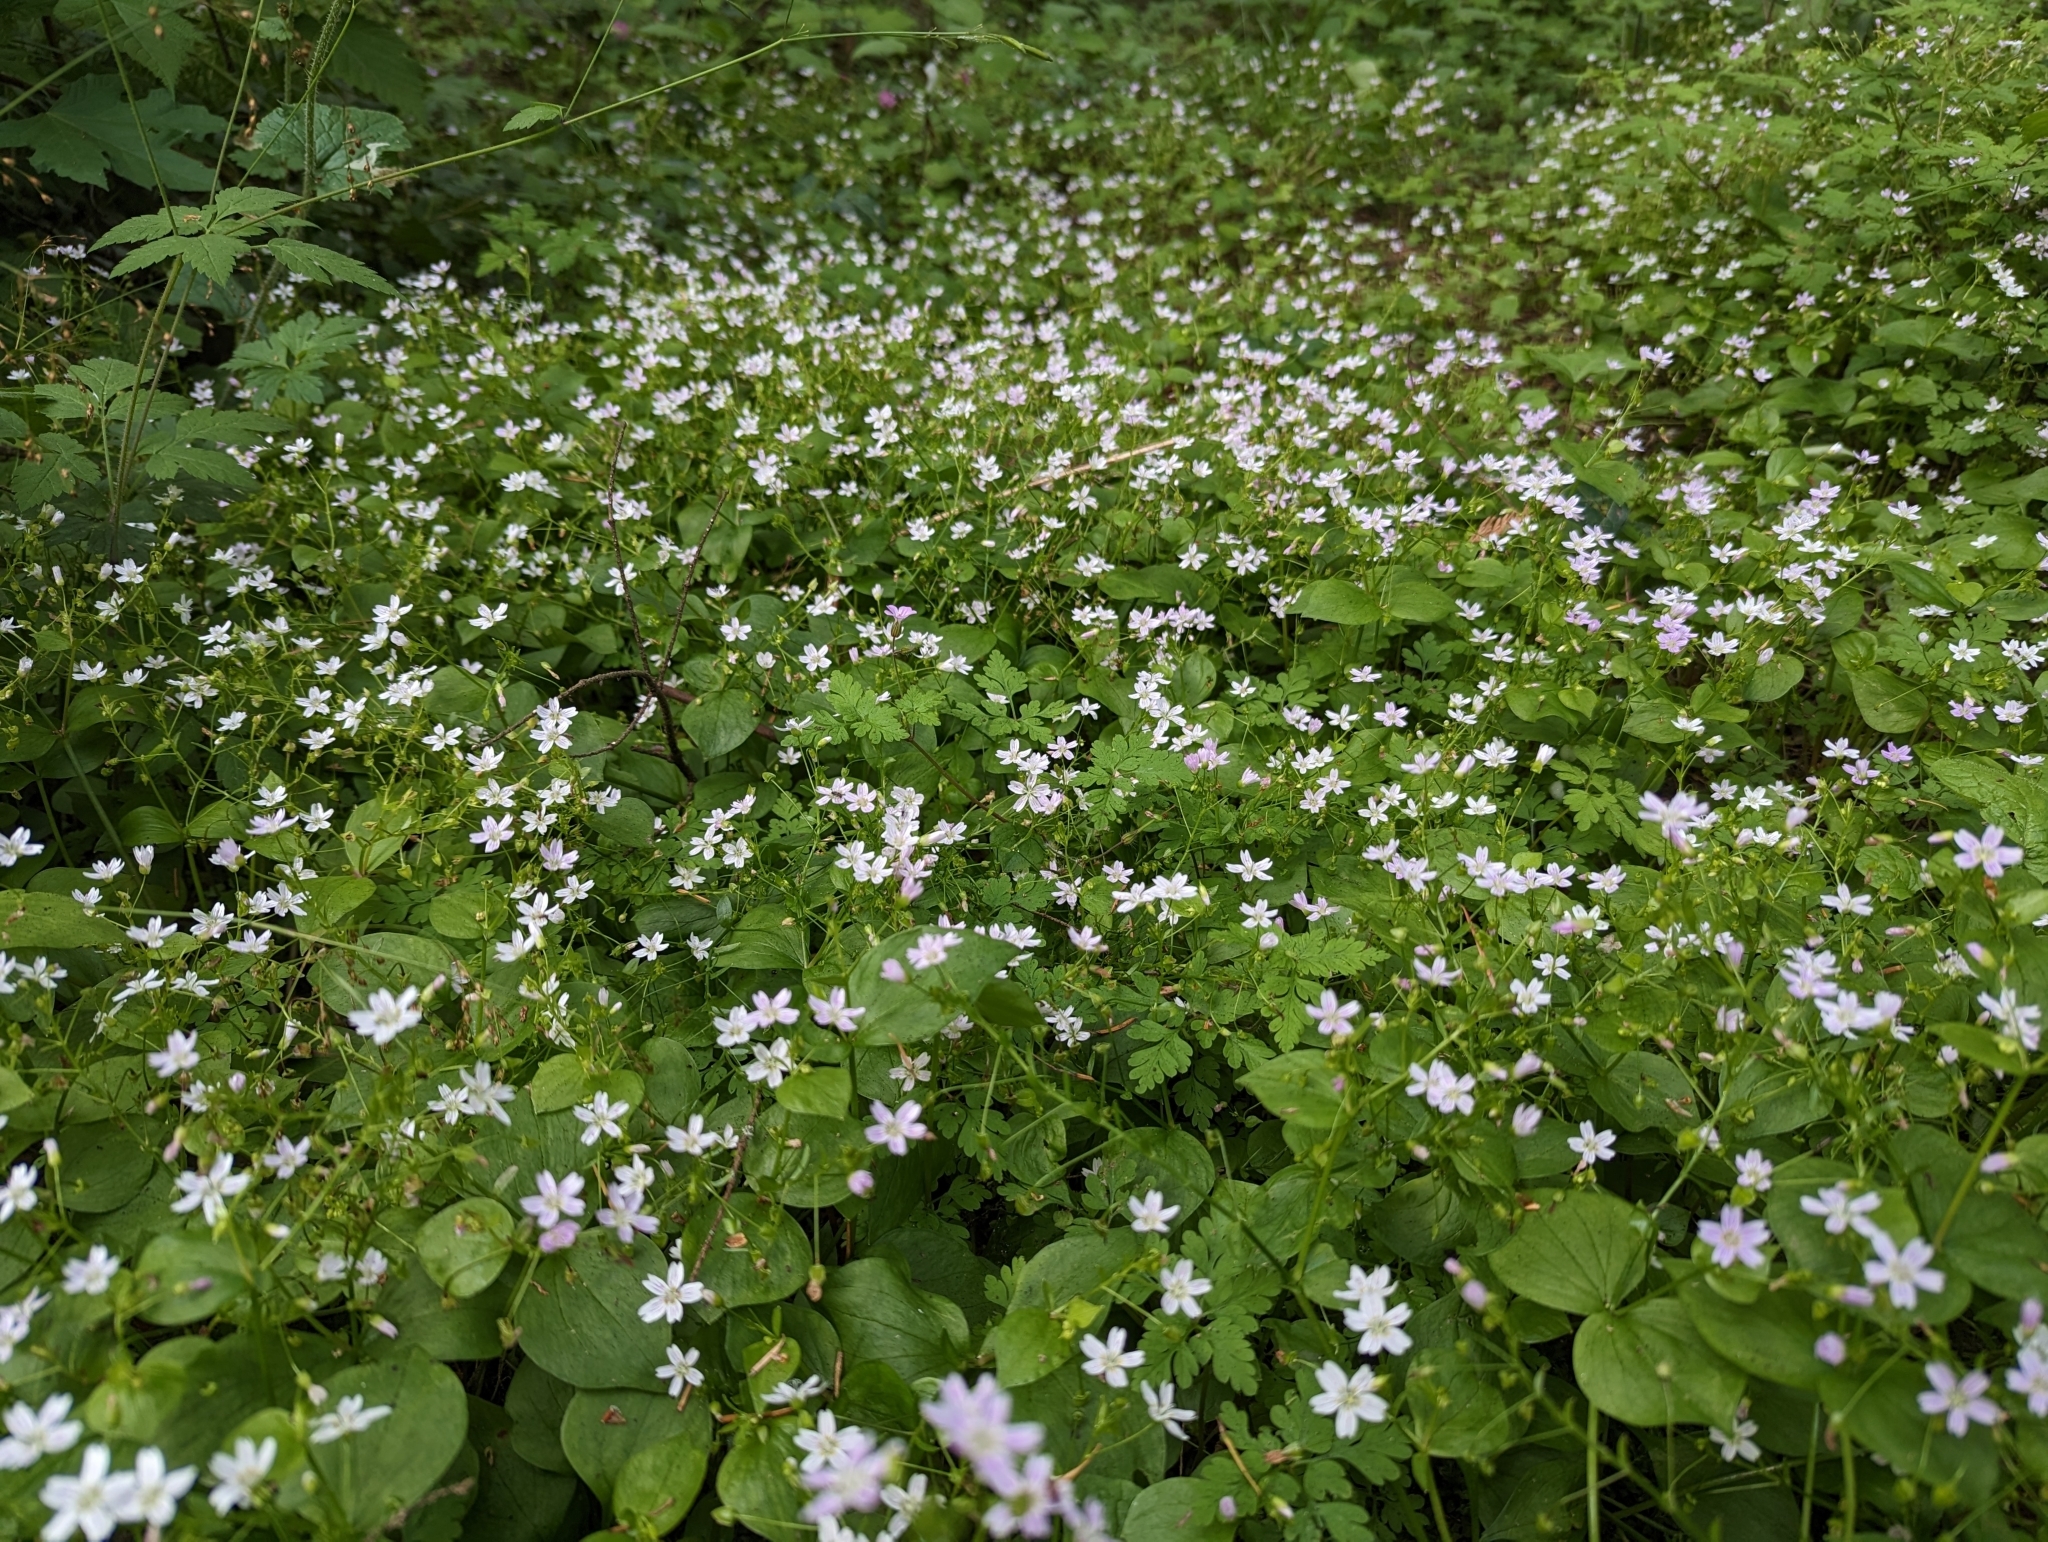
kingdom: Plantae
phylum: Tracheophyta
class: Magnoliopsida
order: Caryophyllales
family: Montiaceae
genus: Claytonia
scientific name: Claytonia sibirica
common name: Pink purslane
